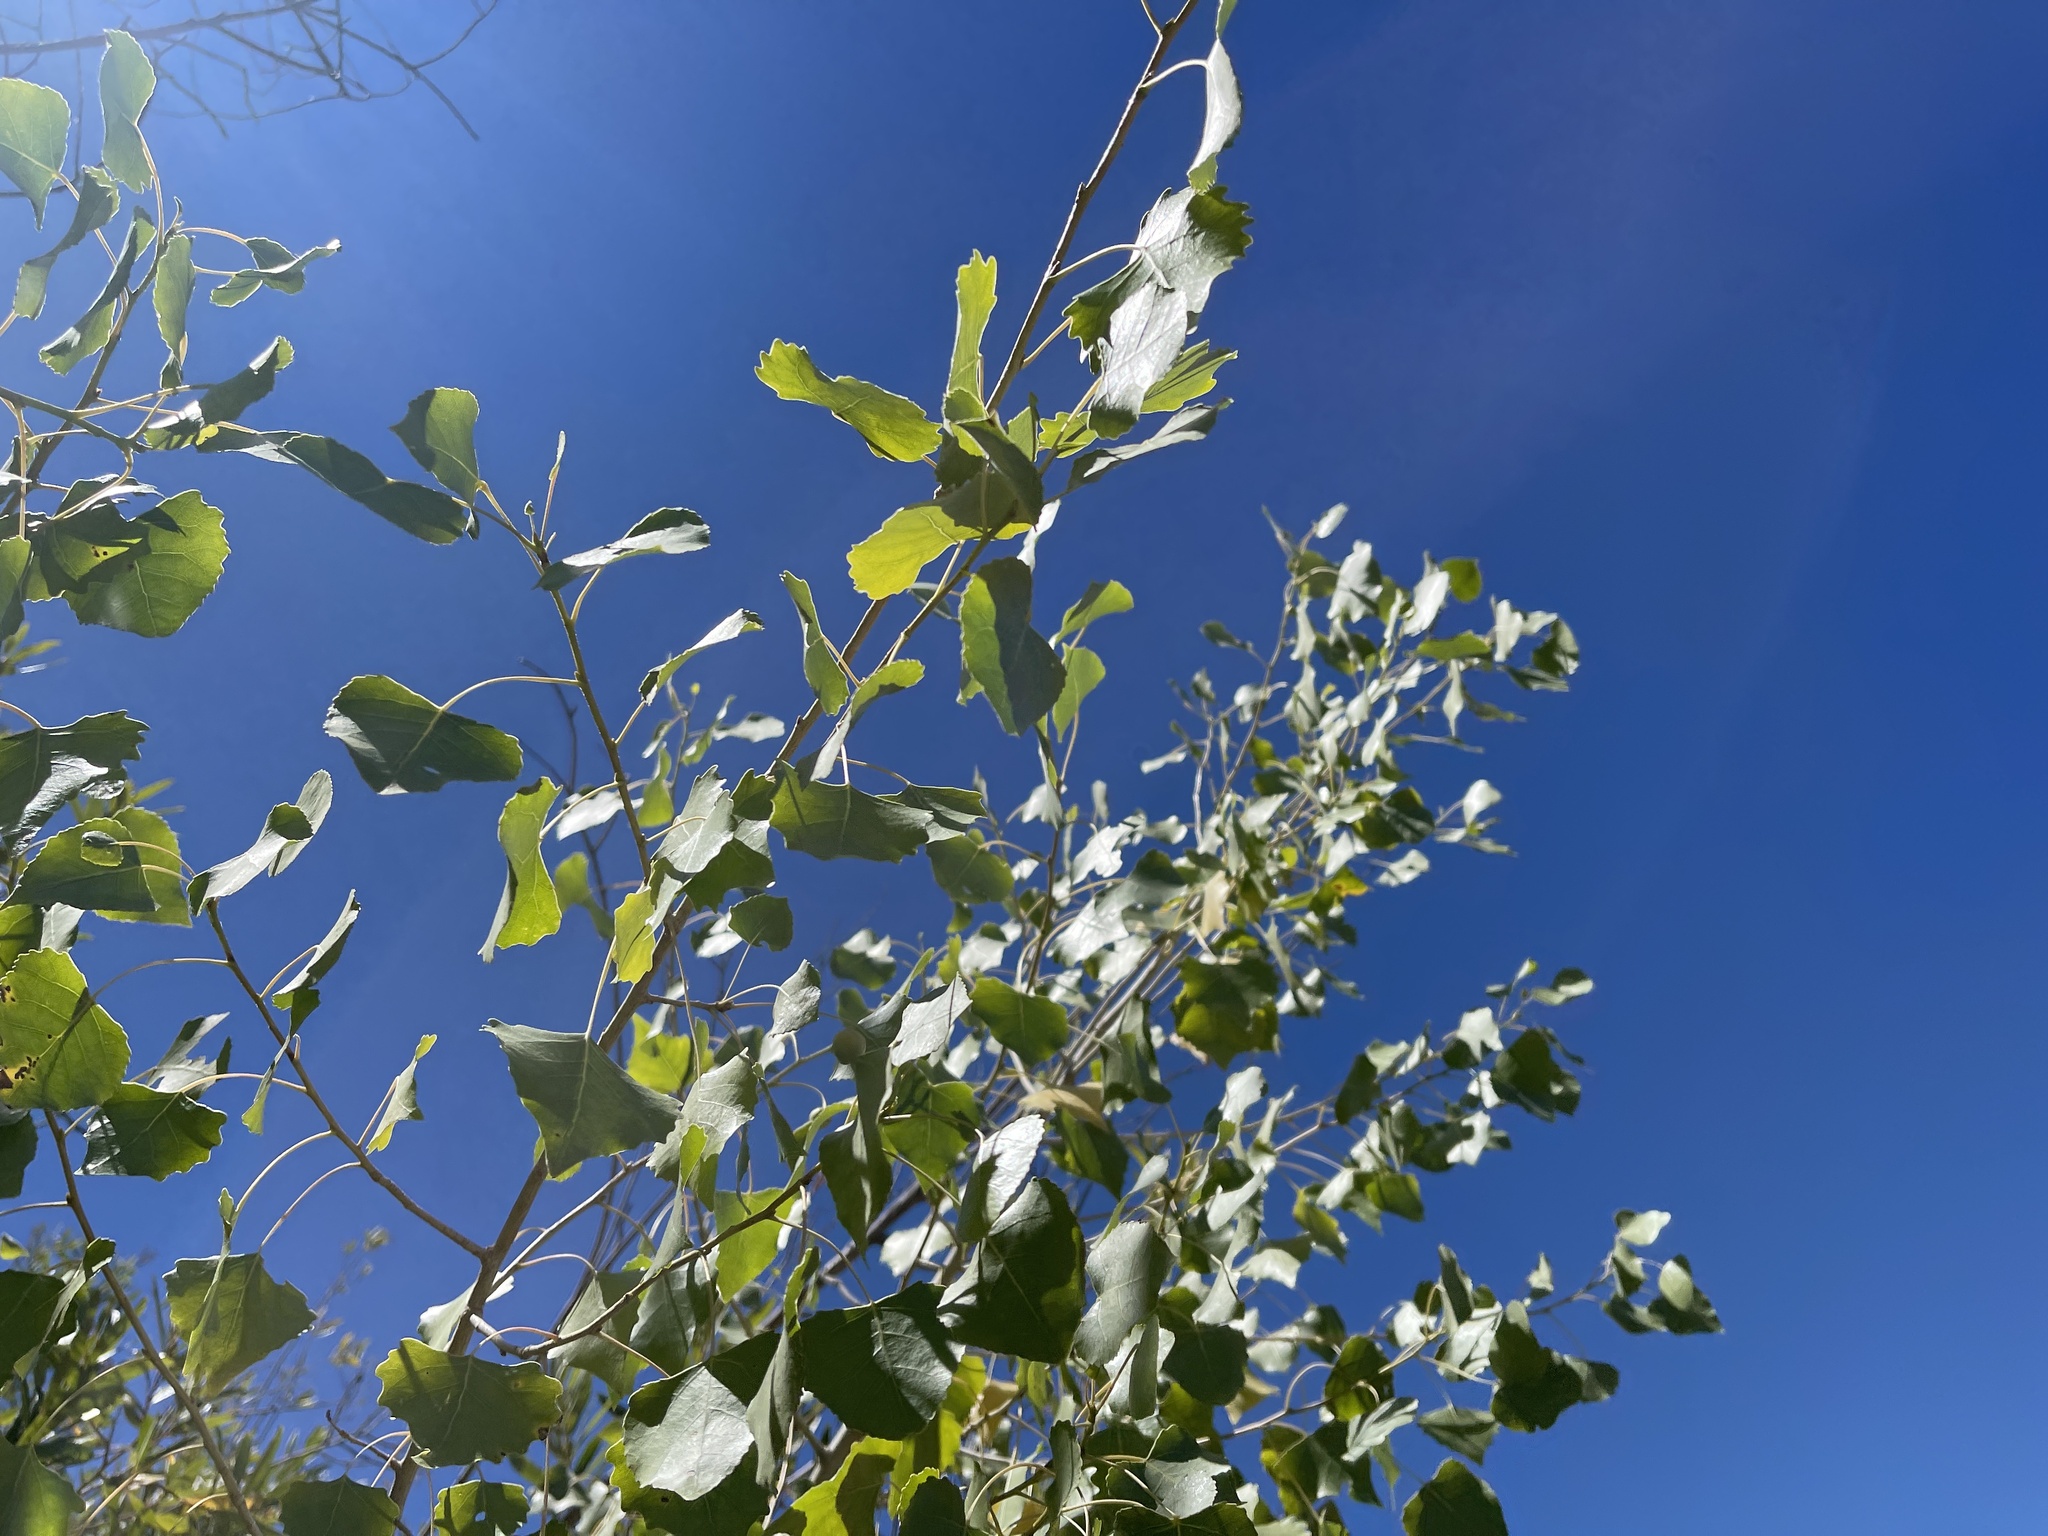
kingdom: Plantae
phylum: Tracheophyta
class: Magnoliopsida
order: Malpighiales
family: Salicaceae
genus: Populus
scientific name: Populus fremontii
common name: Fremont's cottonwood
